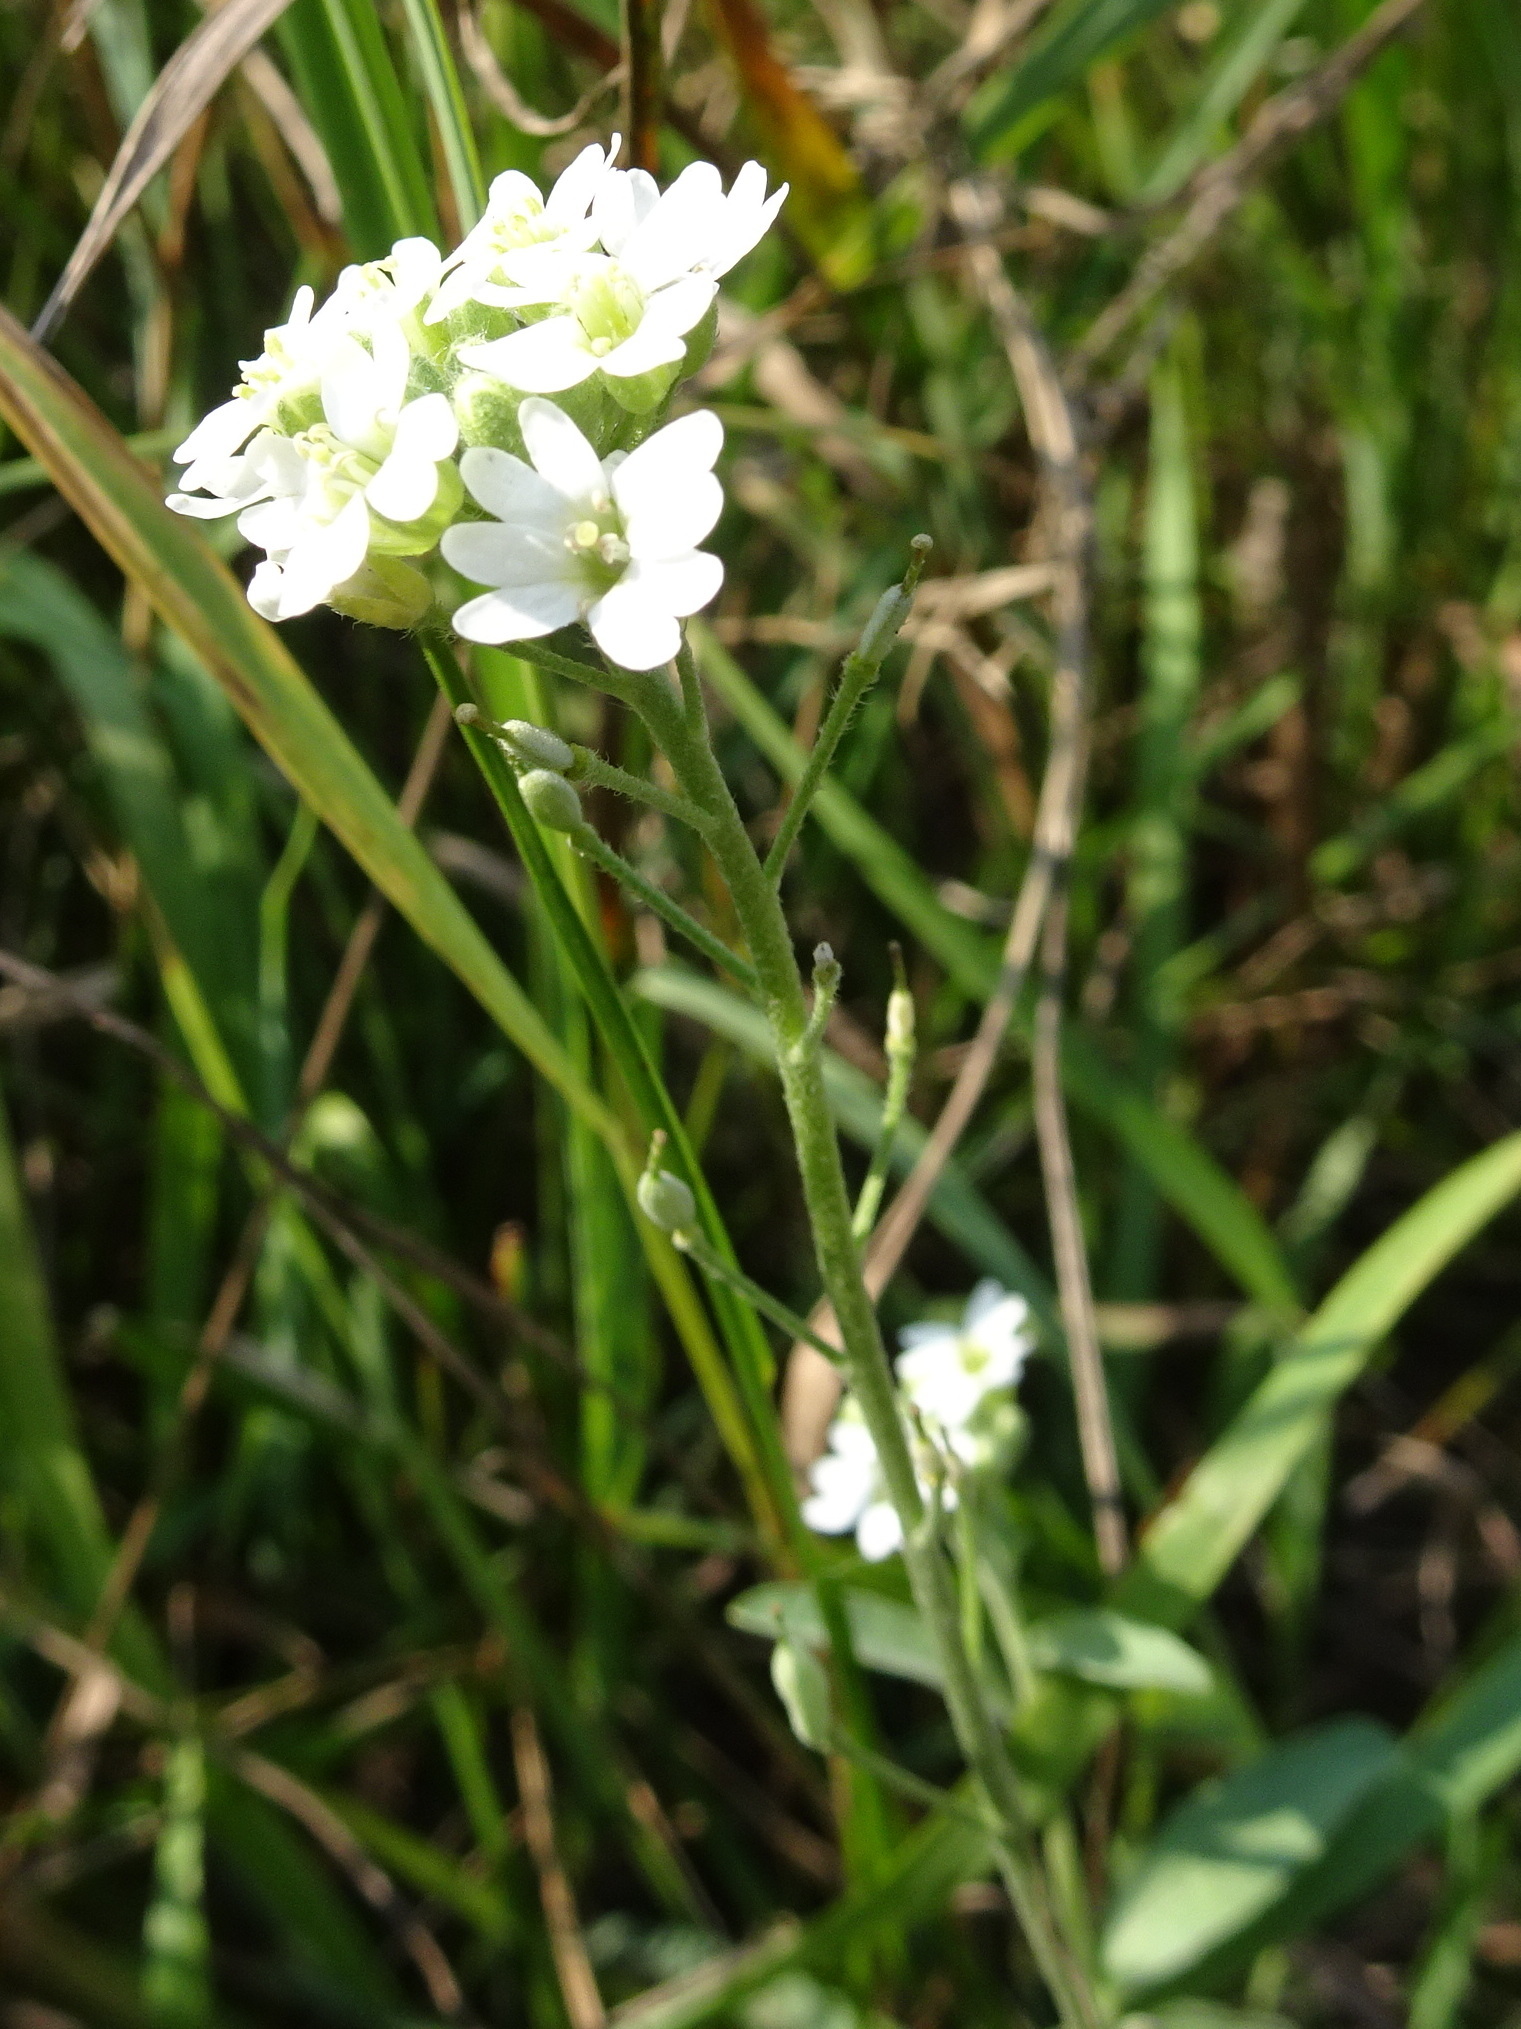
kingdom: Plantae
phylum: Tracheophyta
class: Magnoliopsida
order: Brassicales
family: Brassicaceae
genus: Berteroa
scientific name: Berteroa incana
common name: Hoary alison
